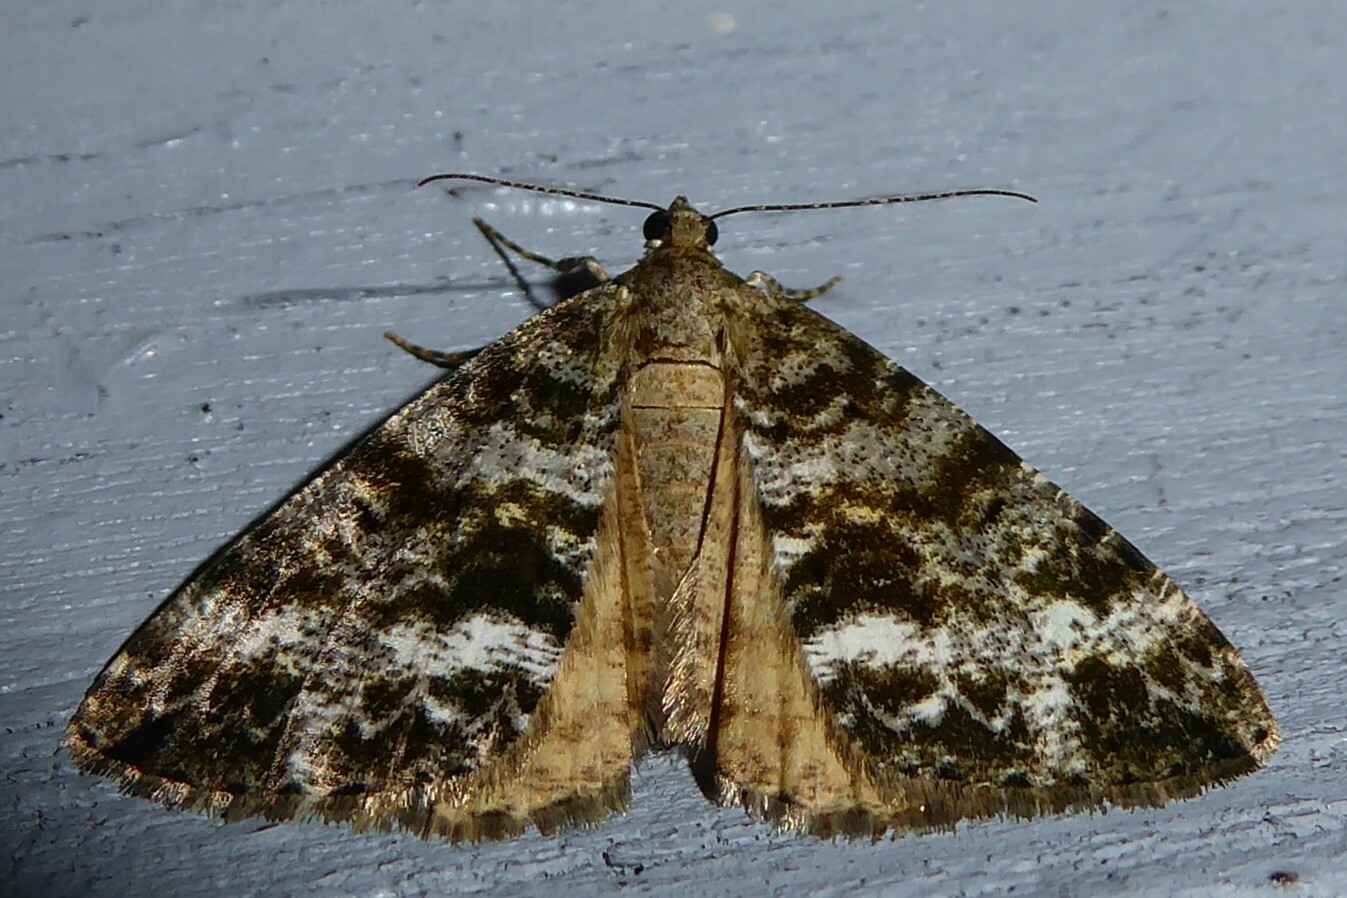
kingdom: Animalia
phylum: Arthropoda
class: Insecta
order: Lepidoptera
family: Geometridae
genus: Pseudocoremia
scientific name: Pseudocoremia lactiflua
